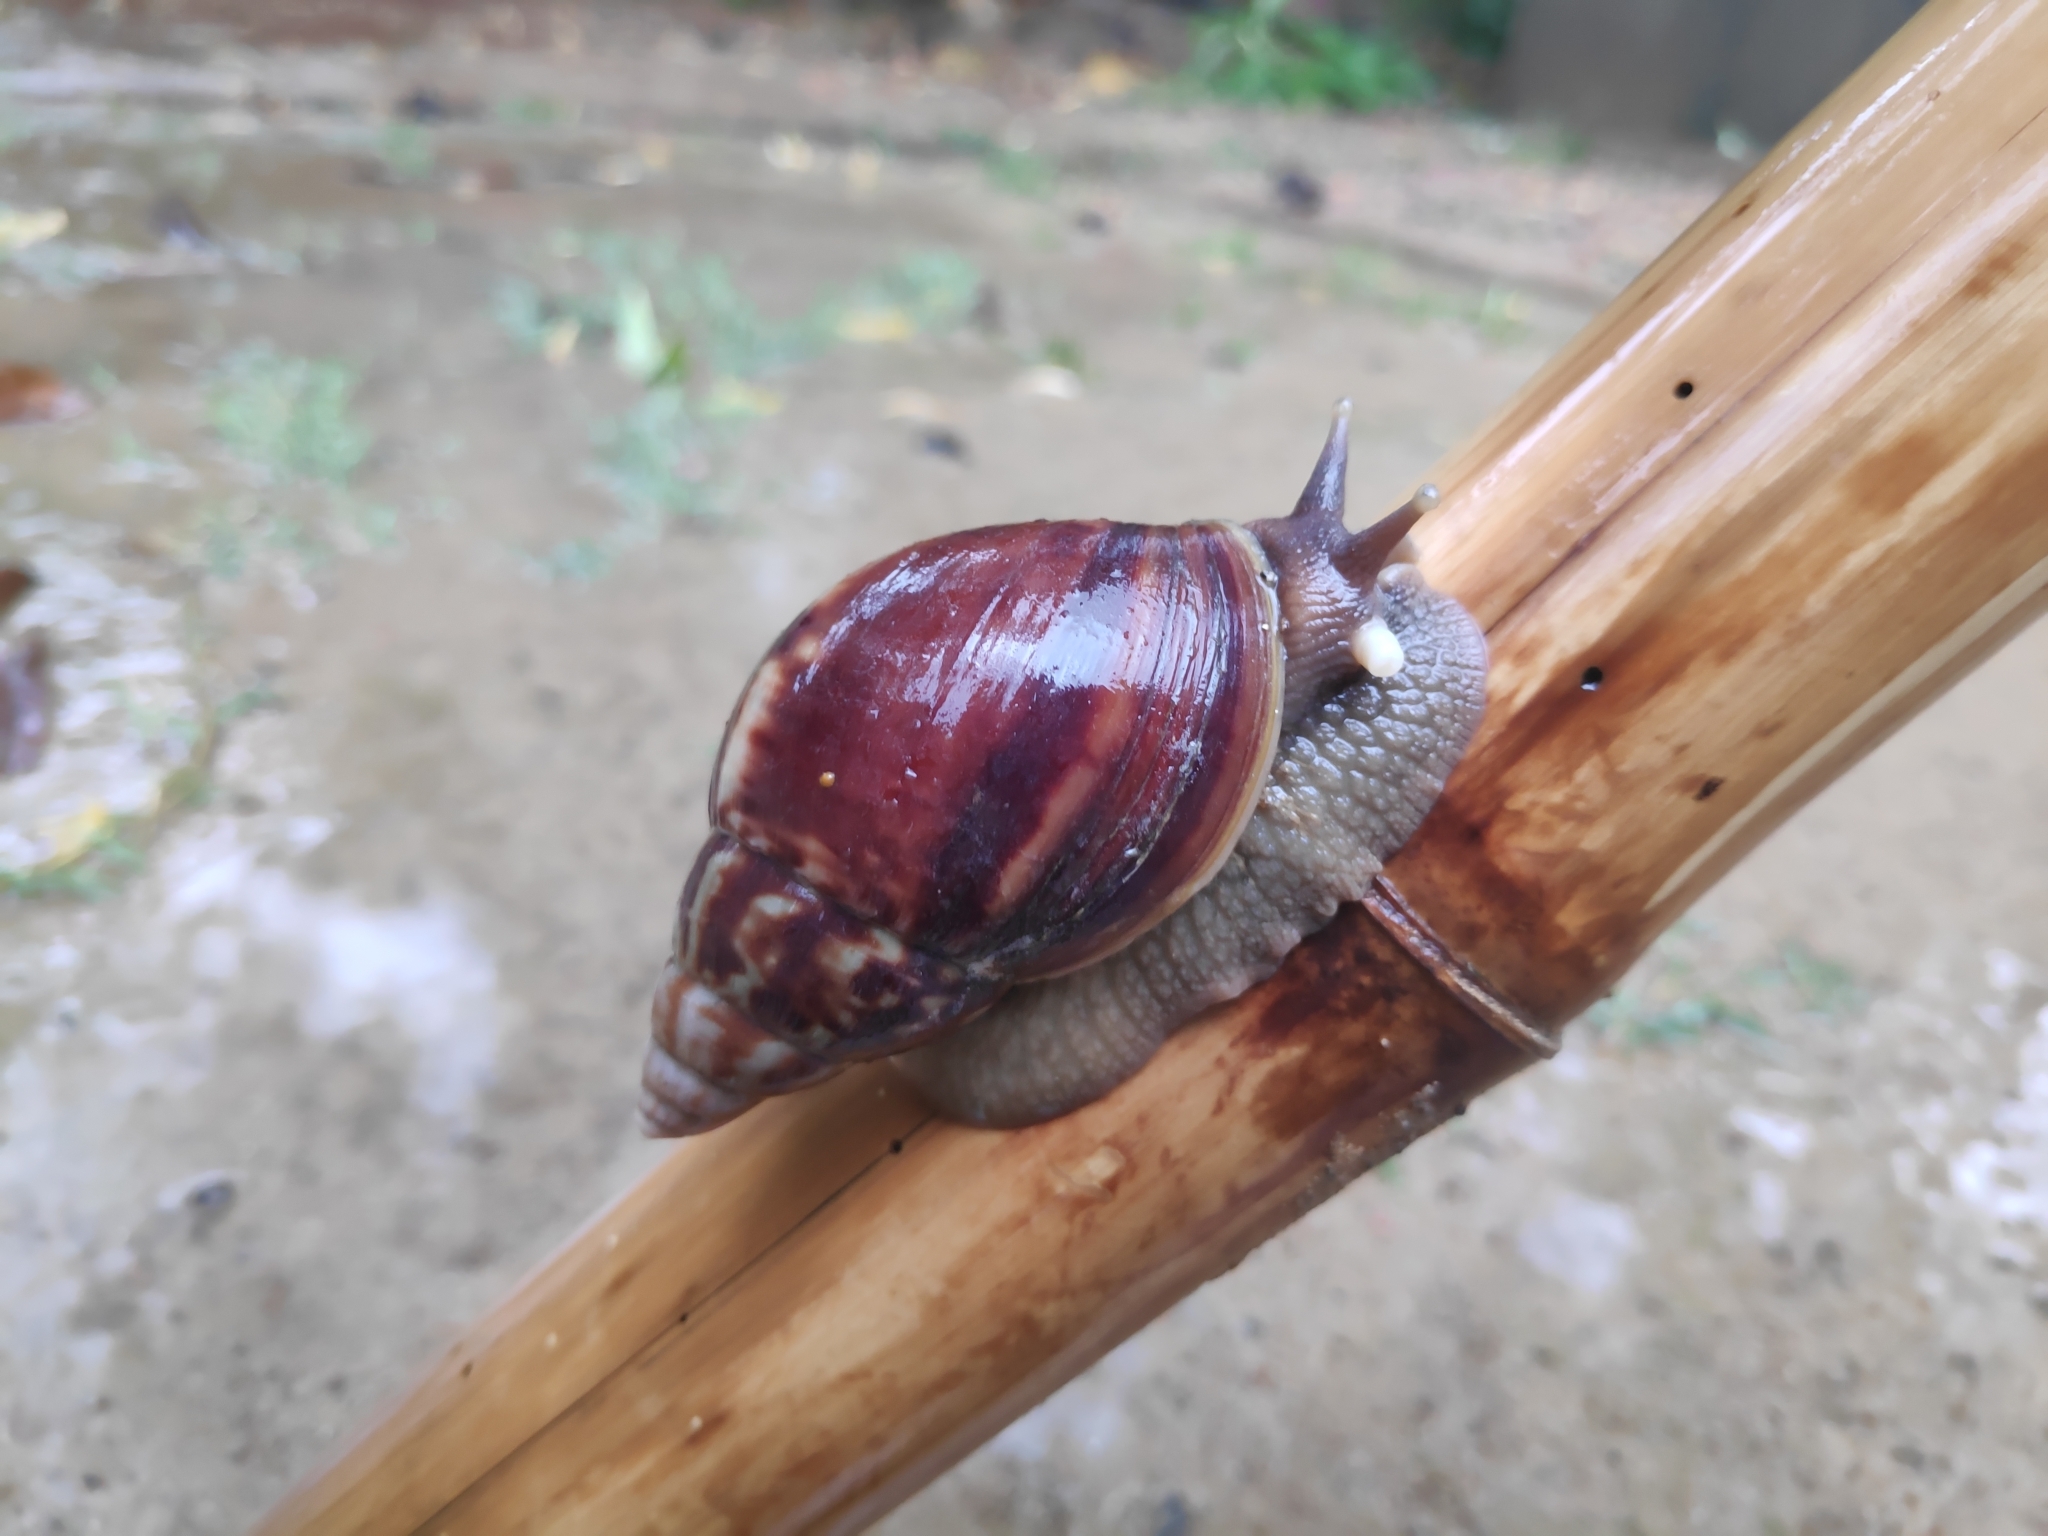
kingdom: Animalia
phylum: Mollusca
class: Gastropoda
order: Stylommatophora
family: Achatinidae
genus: Lissachatina
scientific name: Lissachatina fulica
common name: Giant african snail
